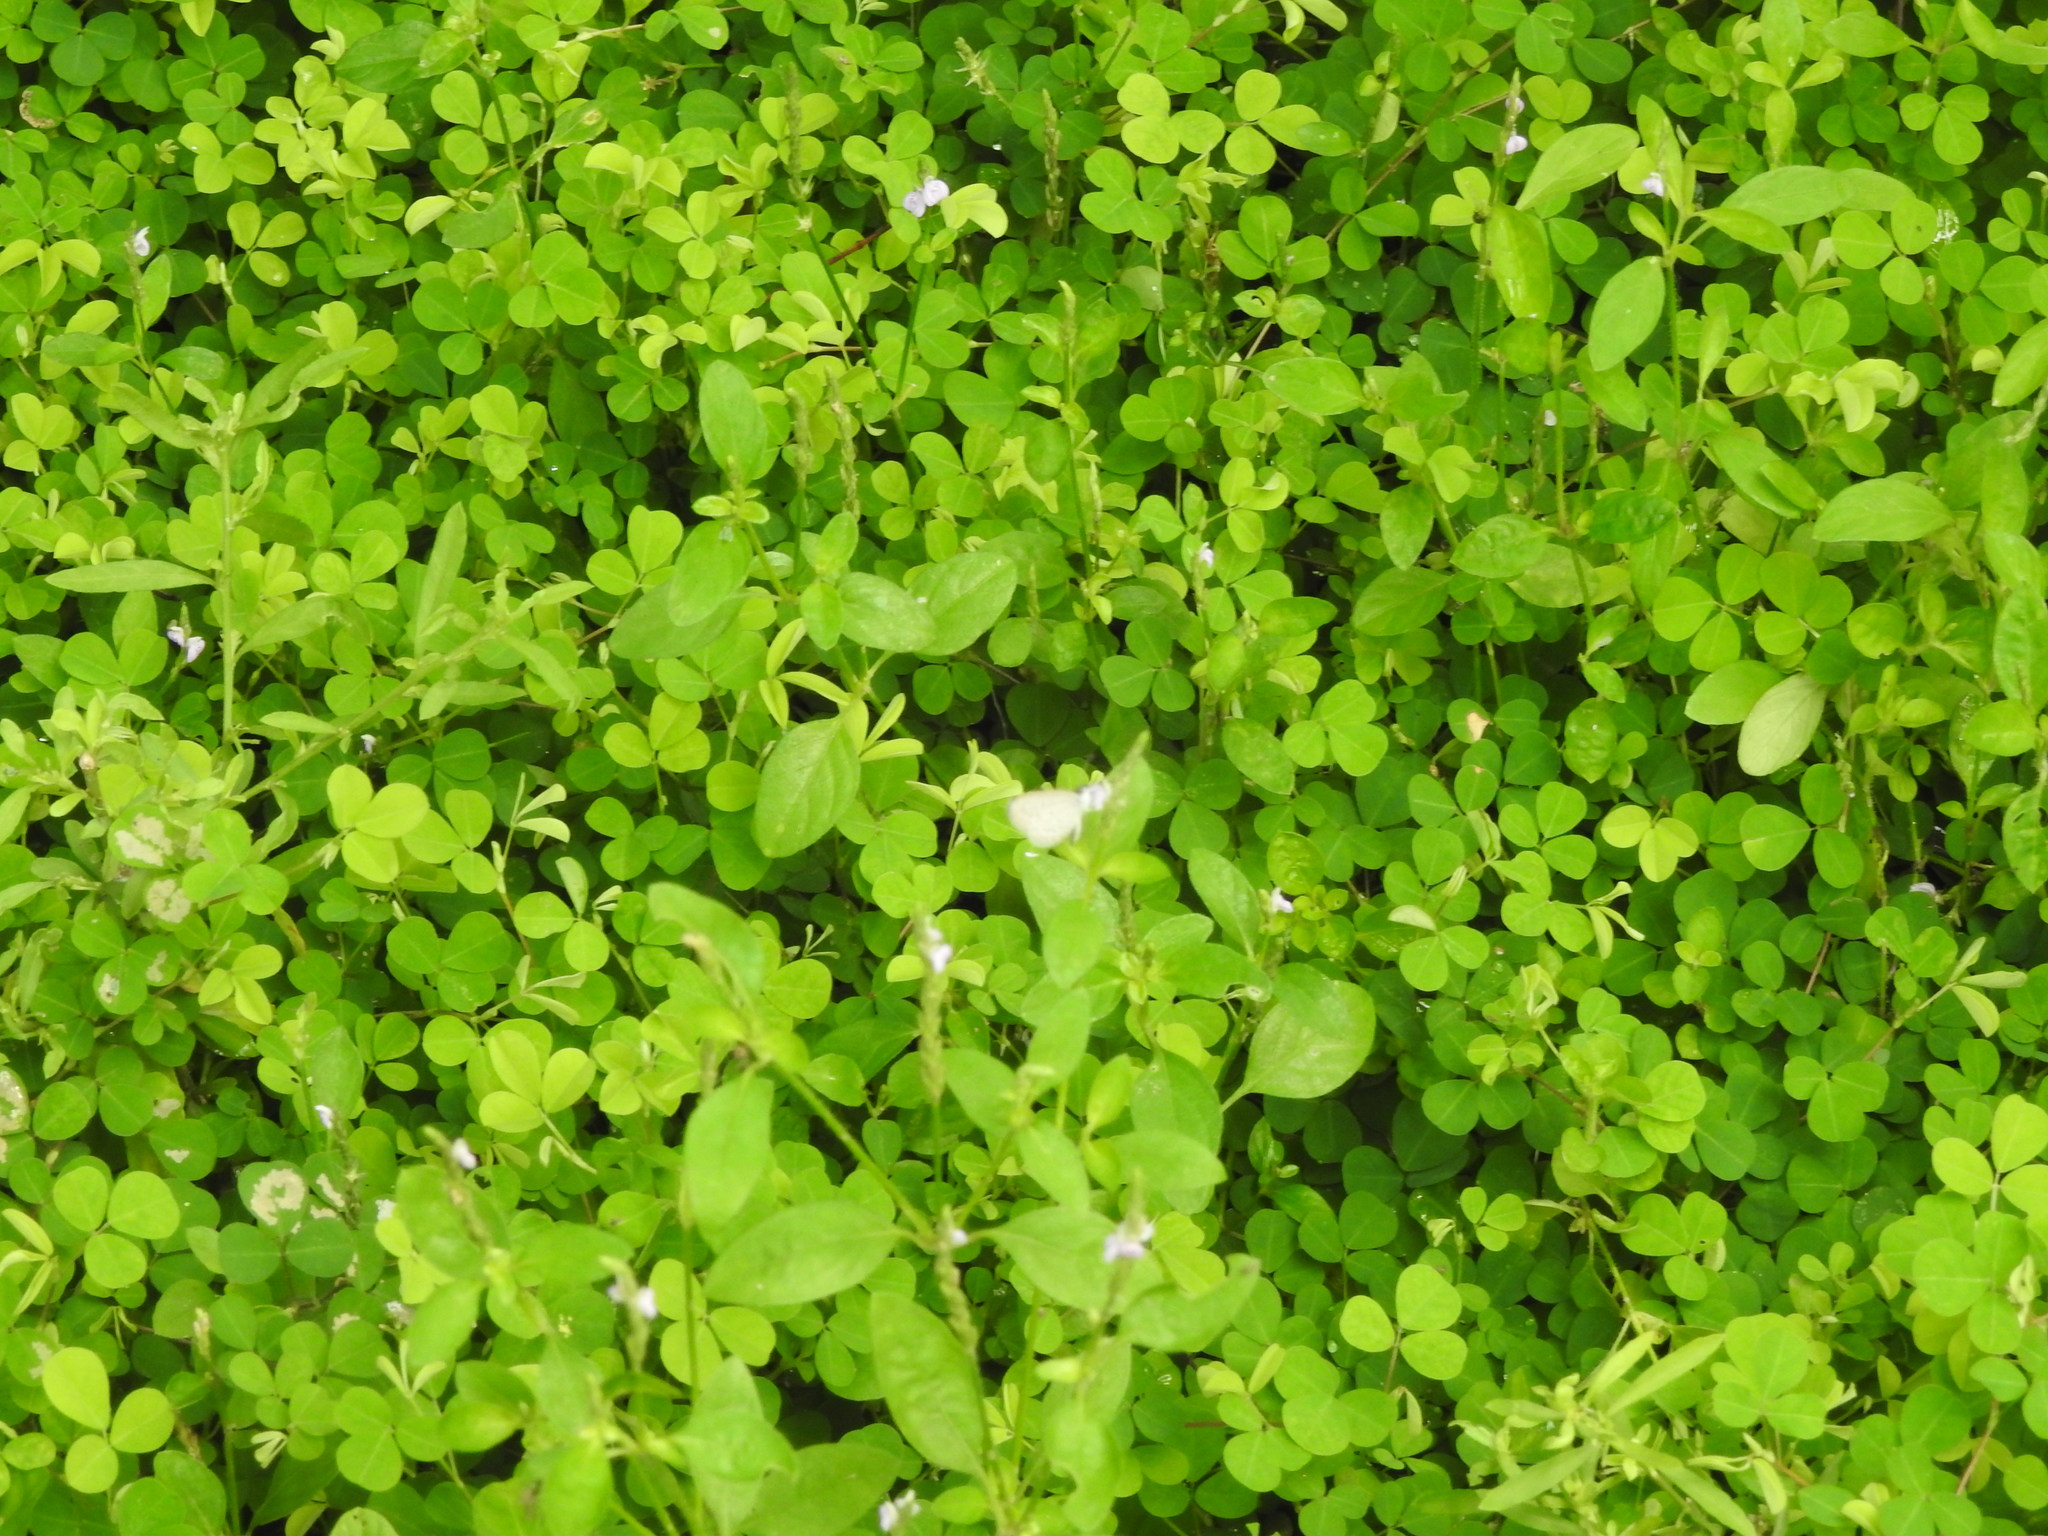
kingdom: Animalia
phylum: Arthropoda
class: Insecta
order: Lepidoptera
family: Lycaenidae
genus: Zizula
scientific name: Zizula hylax
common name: Gaika blue
